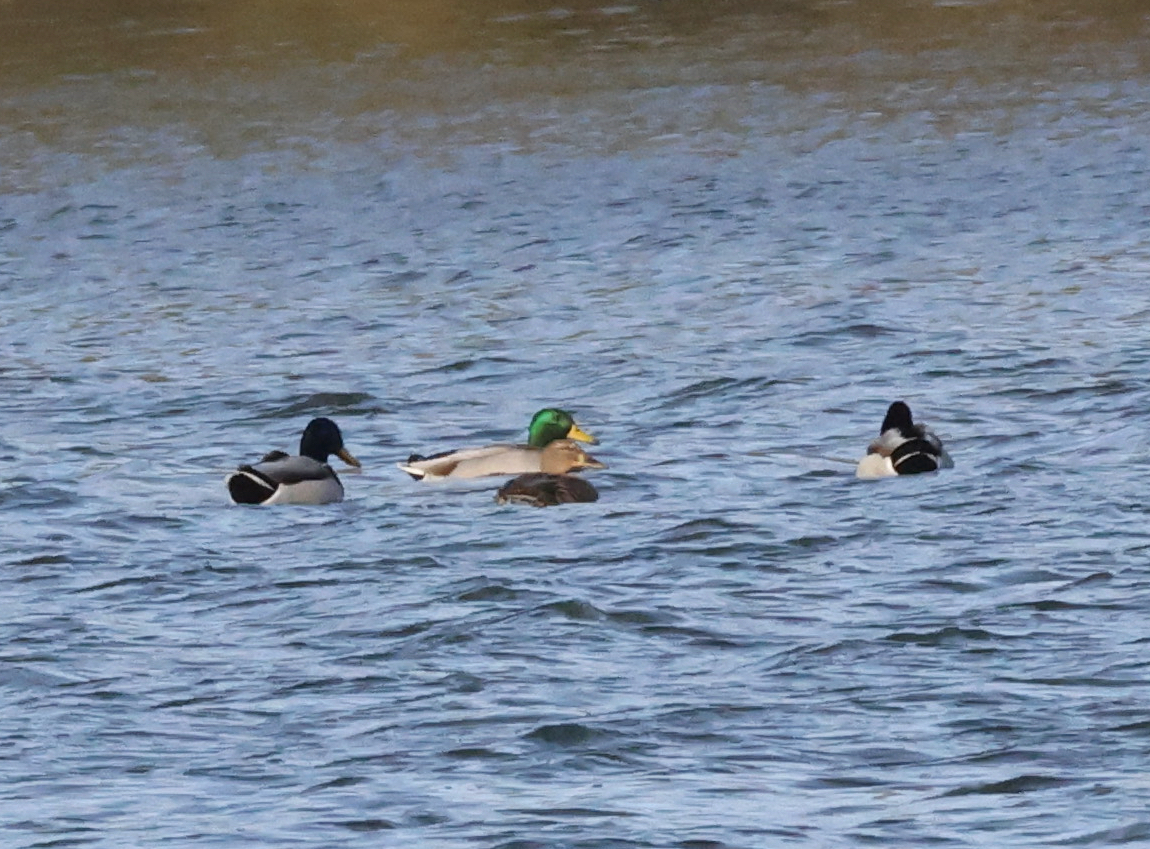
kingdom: Animalia
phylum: Chordata
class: Aves
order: Anseriformes
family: Anatidae
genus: Anas
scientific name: Anas platyrhynchos
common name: Mallard
